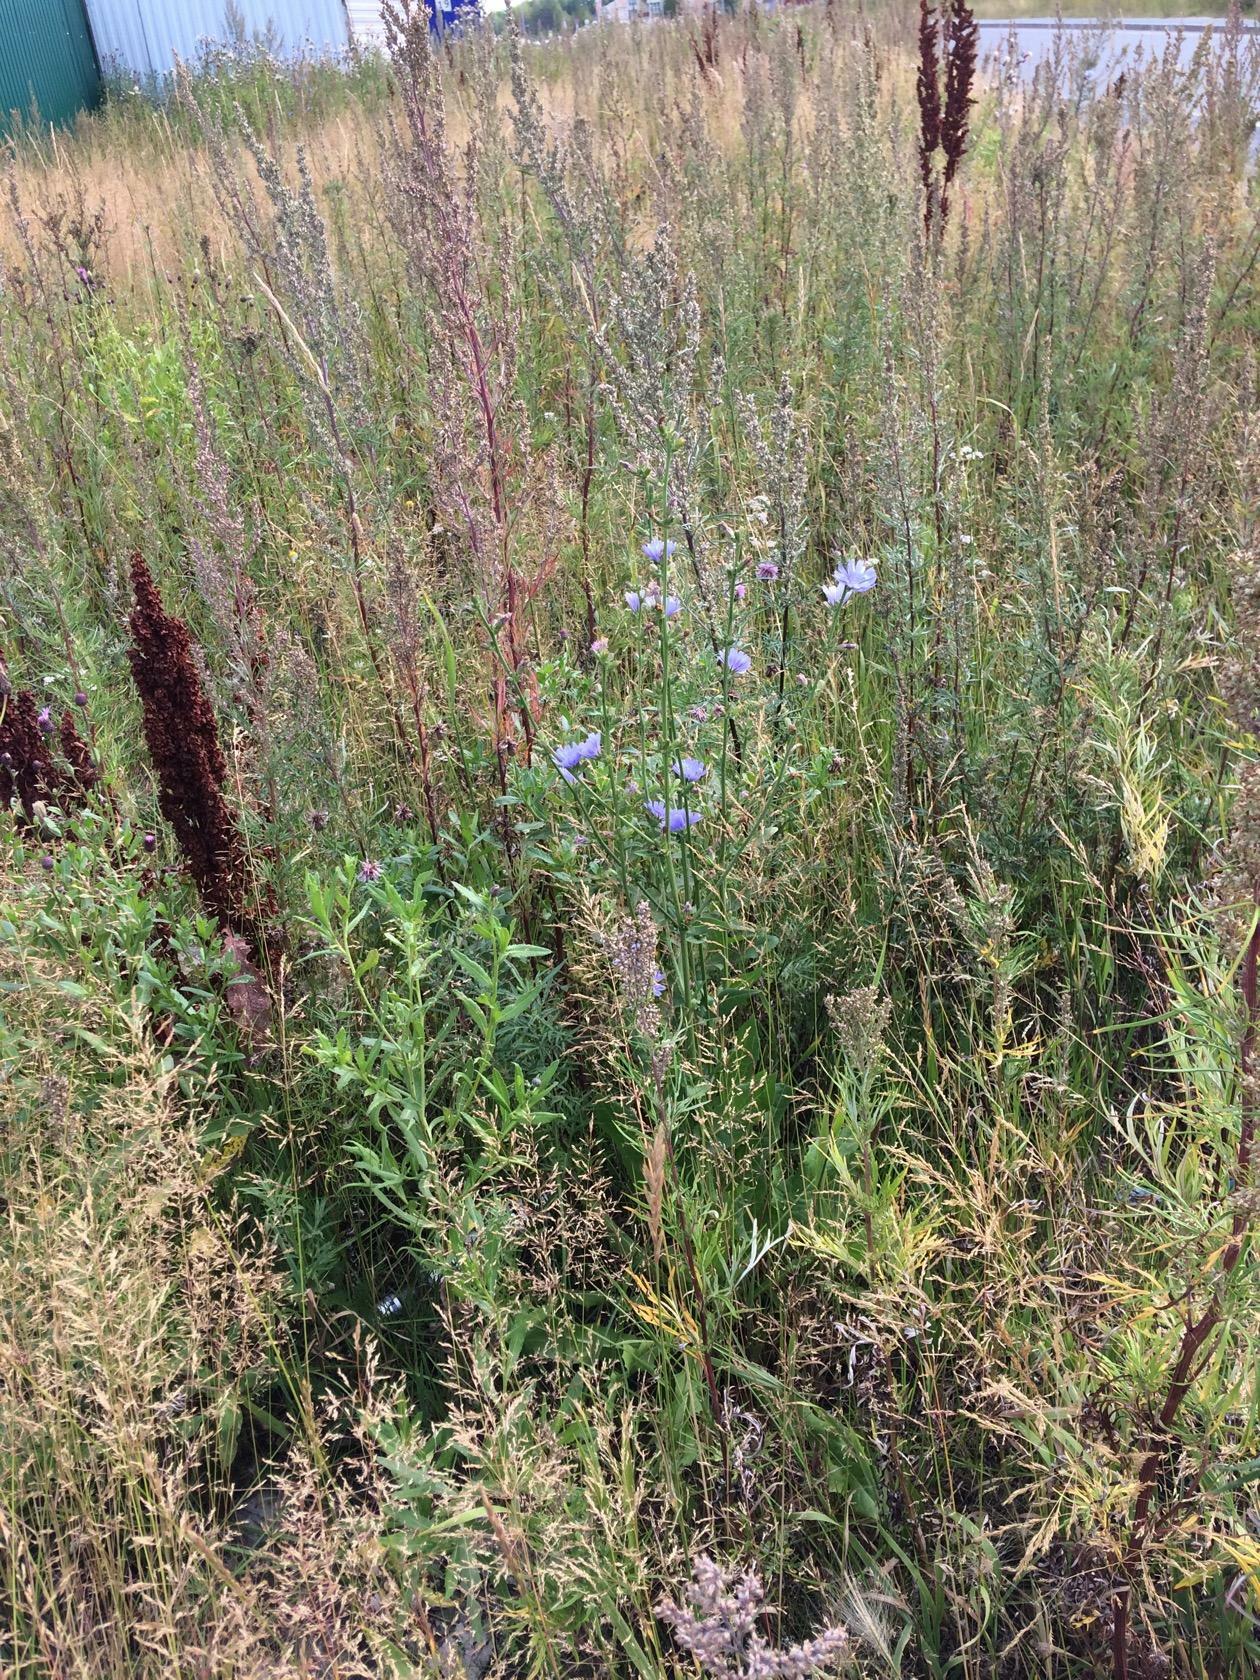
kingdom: Plantae
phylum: Tracheophyta
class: Magnoliopsida
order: Asterales
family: Asteraceae
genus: Cichorium
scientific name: Cichorium intybus
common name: Chicory
